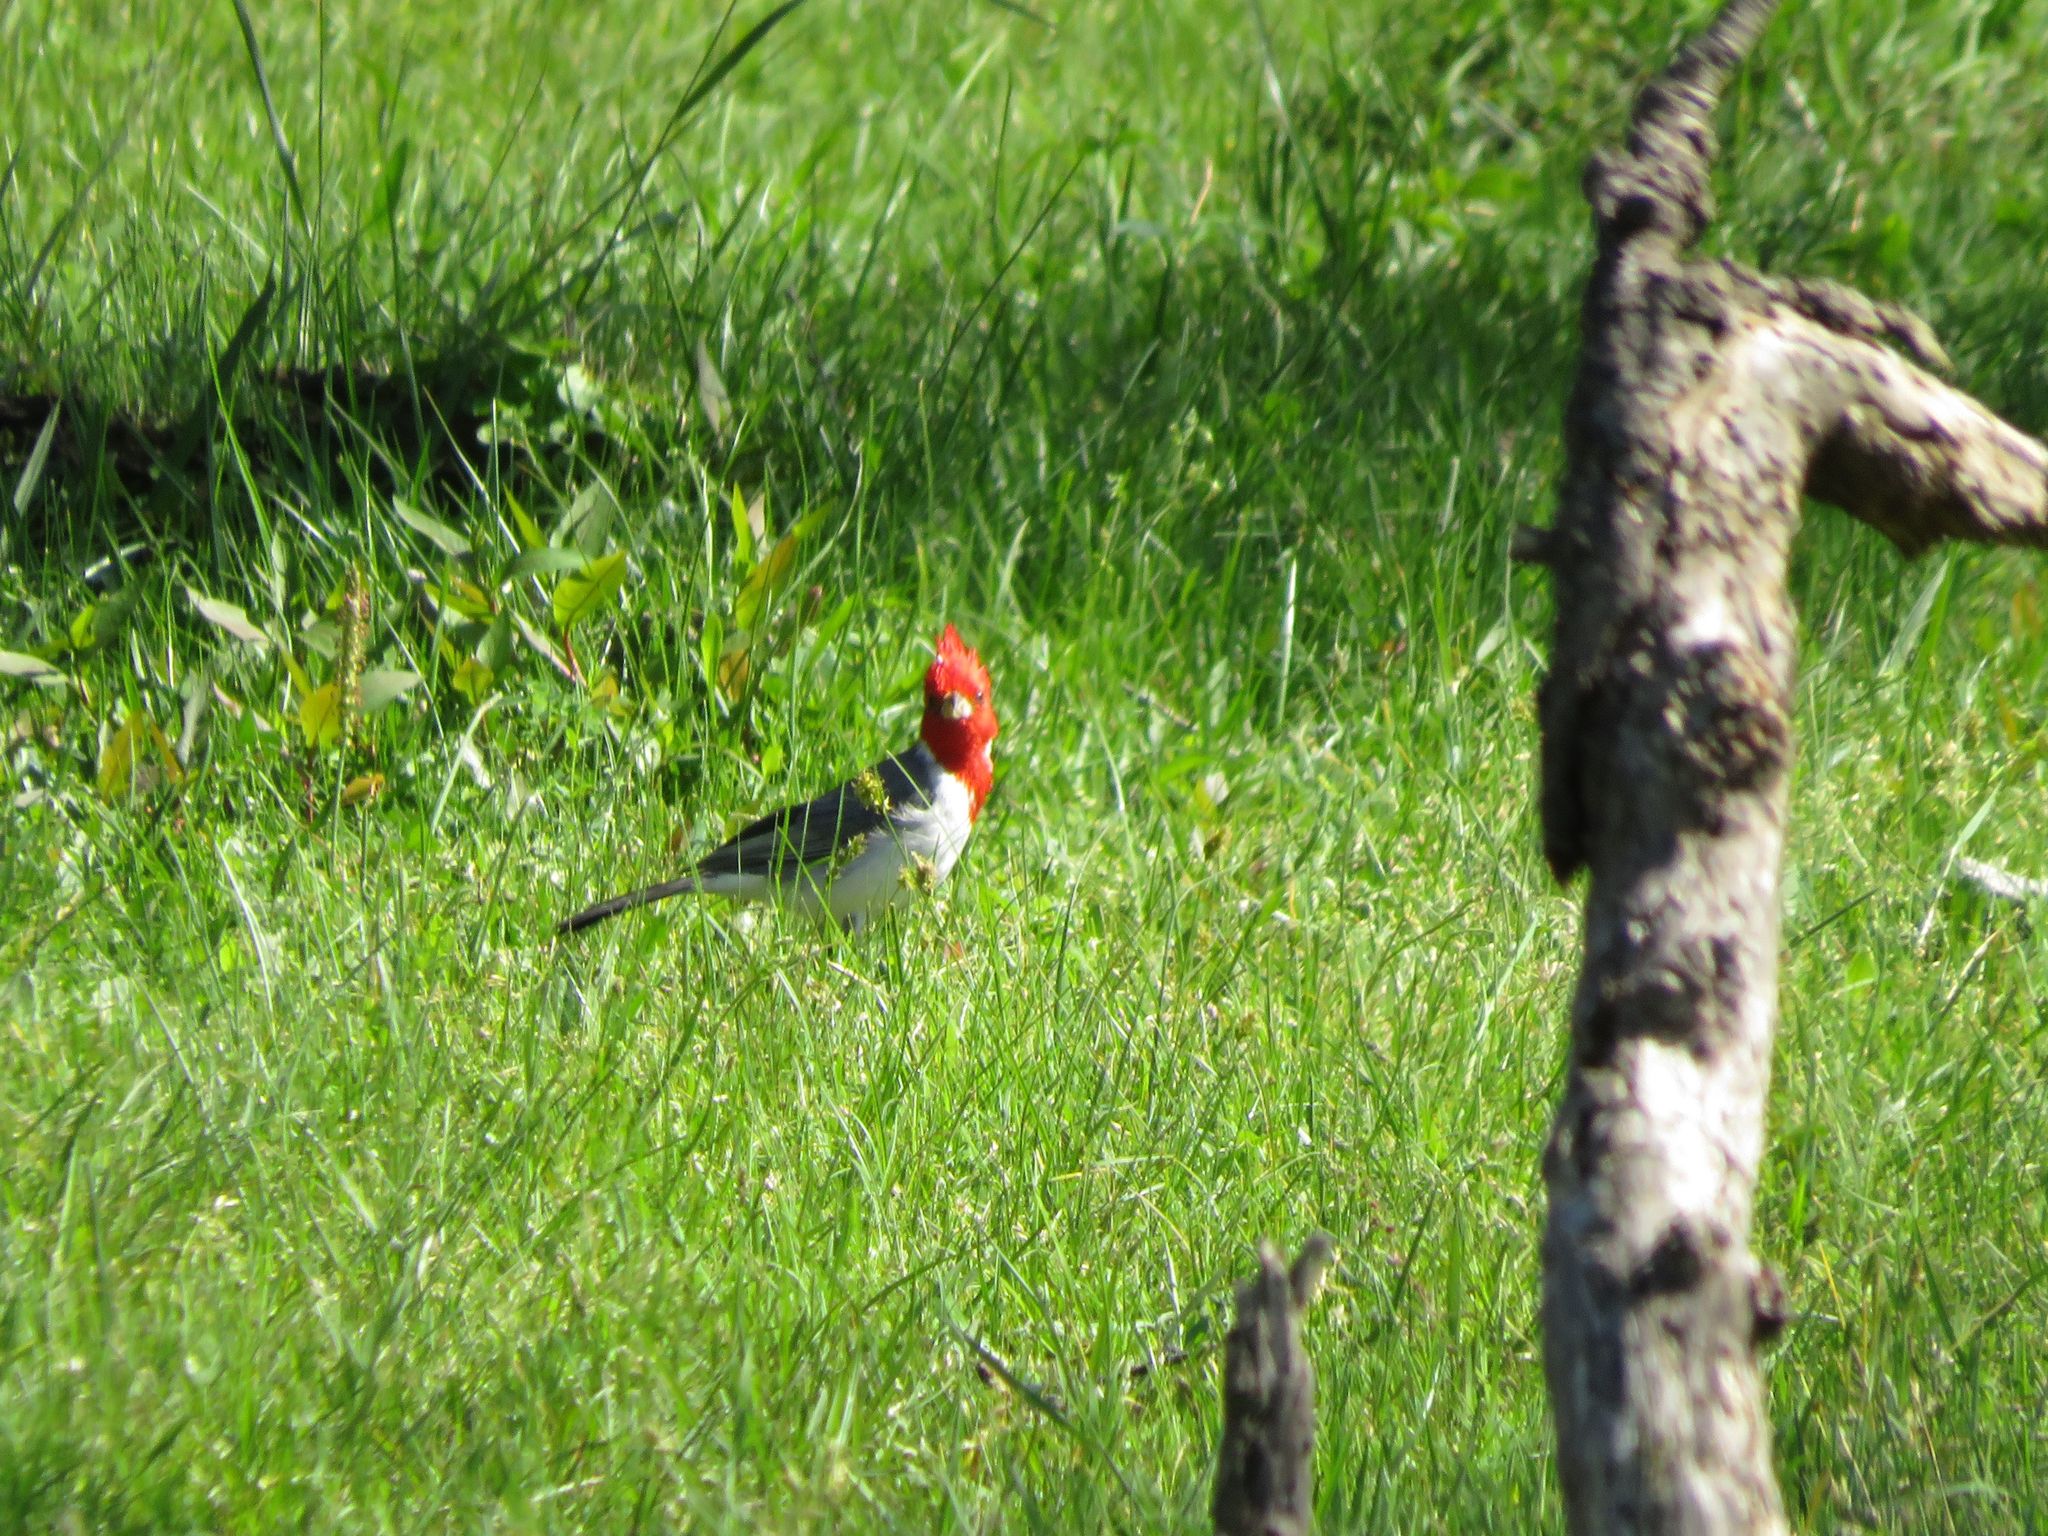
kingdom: Animalia
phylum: Chordata
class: Aves
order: Passeriformes
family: Thraupidae
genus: Paroaria
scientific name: Paroaria coronata
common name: Red-crested cardinal
